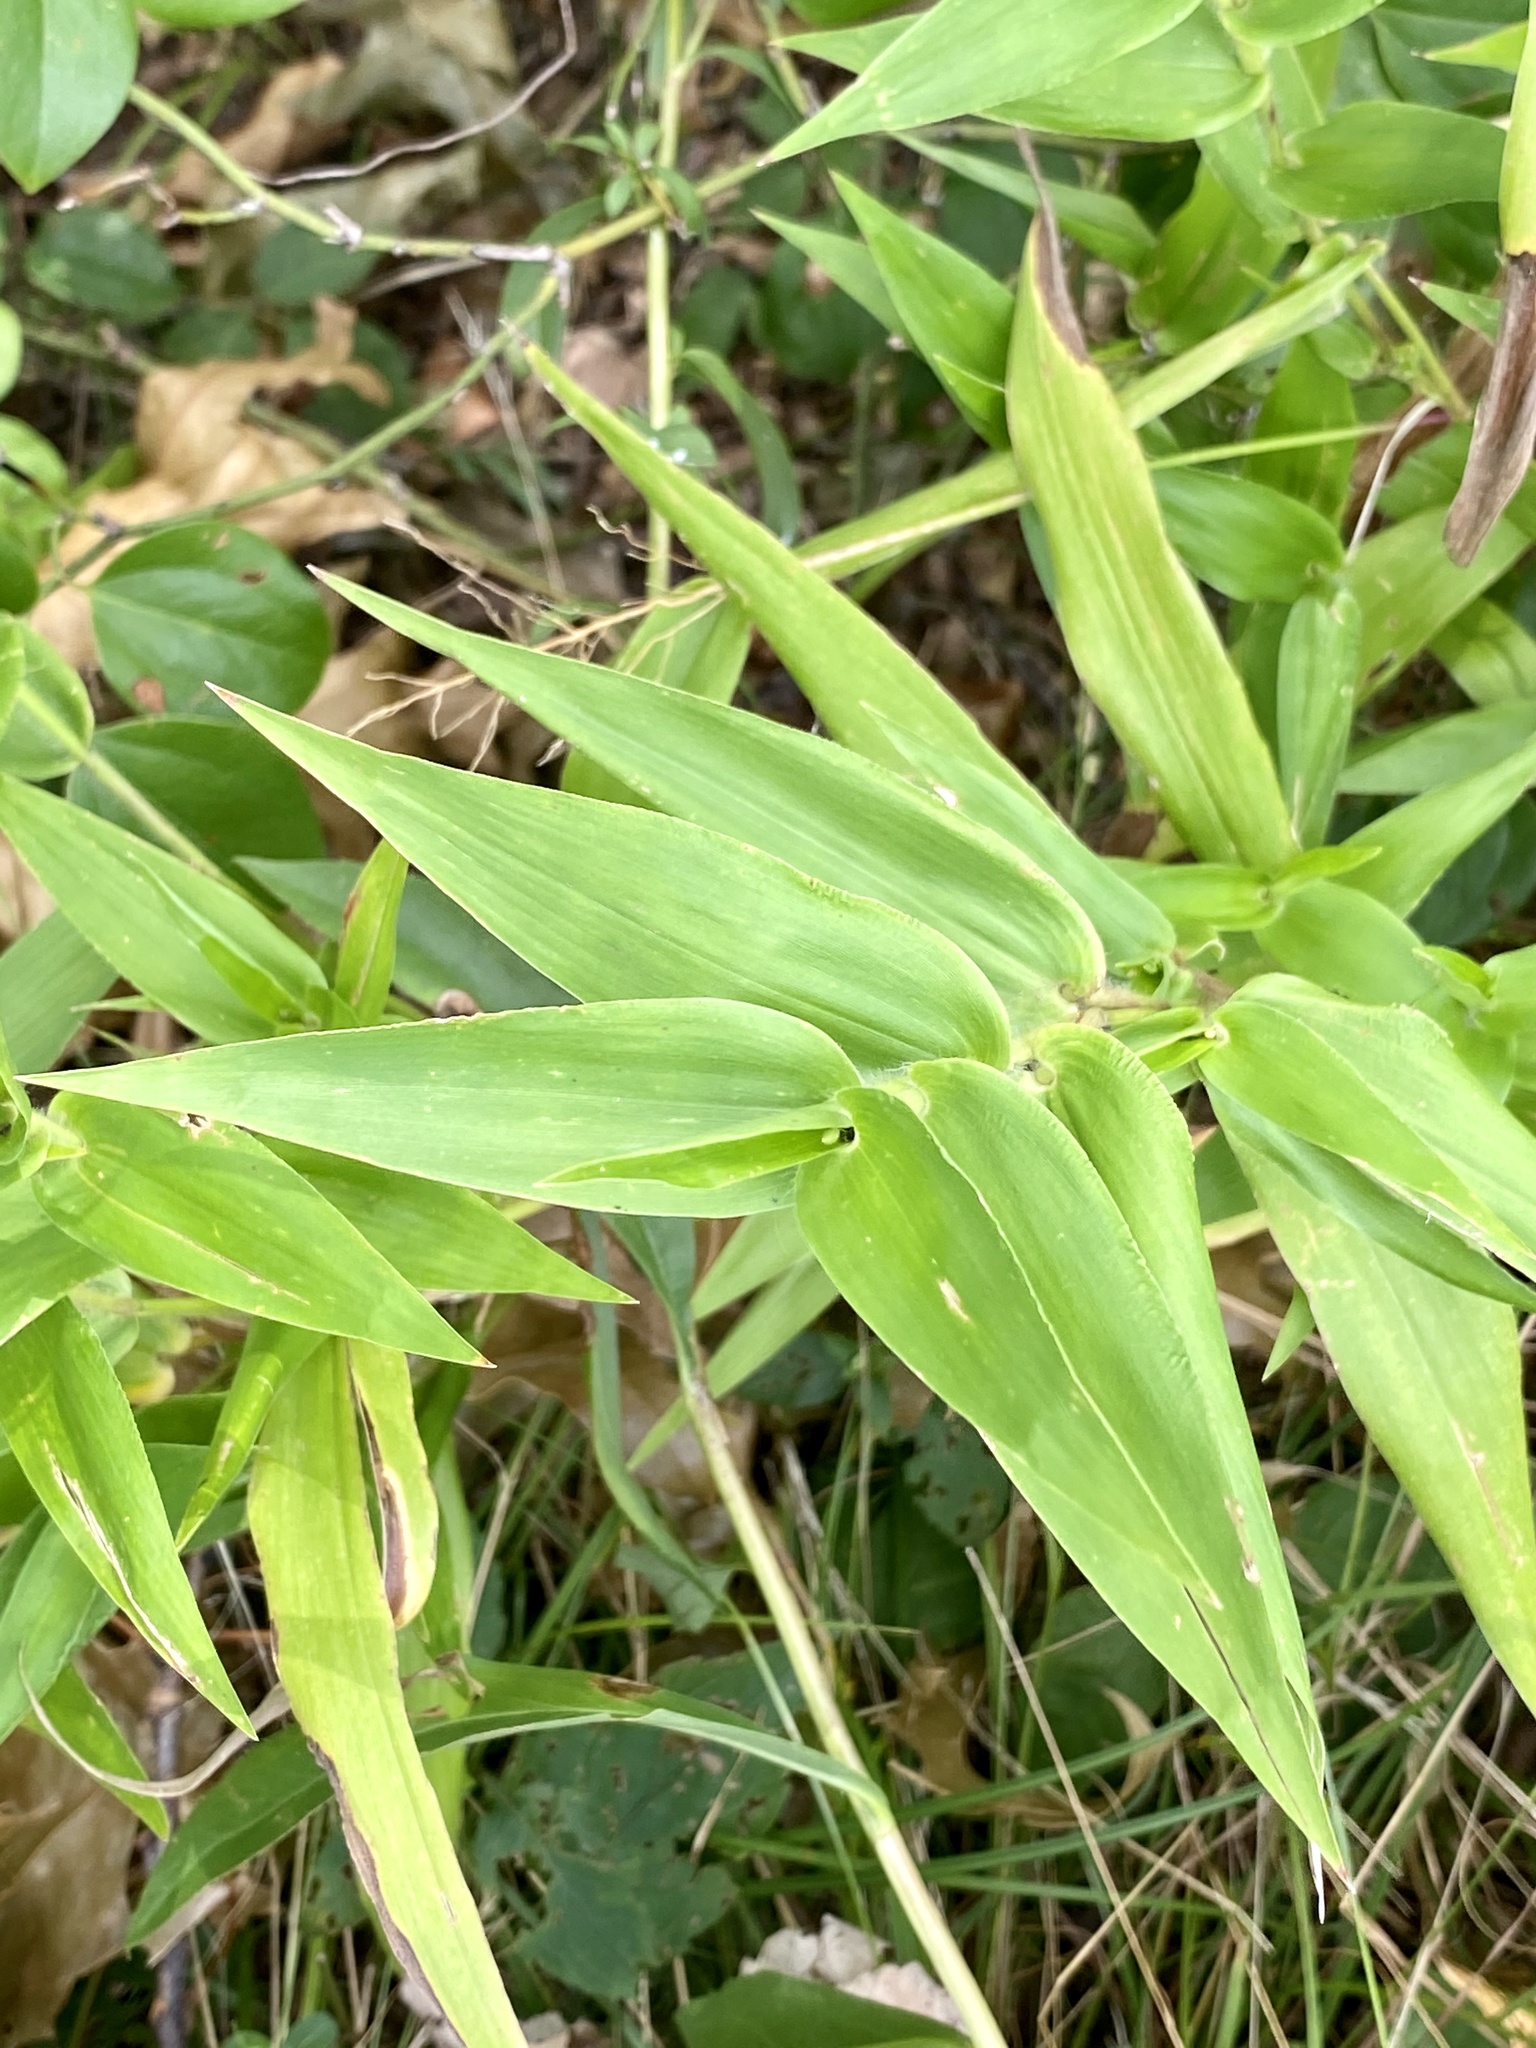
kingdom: Plantae
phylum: Tracheophyta
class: Liliopsida
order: Poales
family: Poaceae
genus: Dichanthelium
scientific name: Dichanthelium clandestinum
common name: Deer-tongue grass
